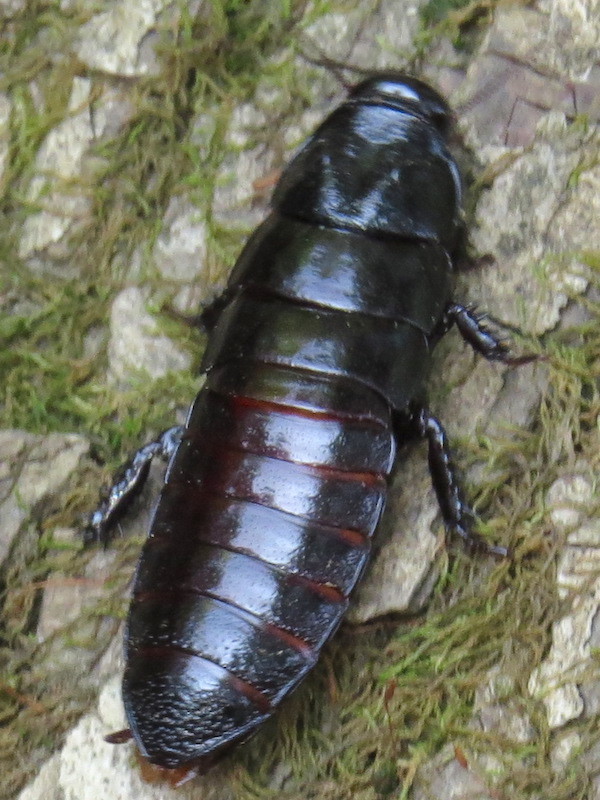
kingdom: Animalia
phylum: Arthropoda
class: Insecta
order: Blattodea
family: Cryptocercidae
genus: Cryptocercus
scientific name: Cryptocercus punctulatus
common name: Brown wingless cockroach
